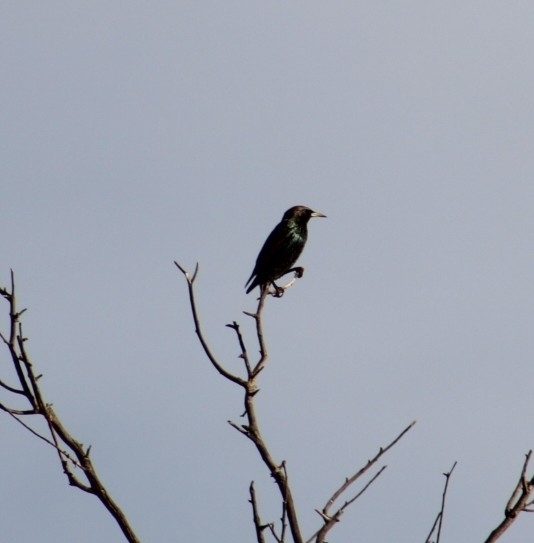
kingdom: Animalia
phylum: Chordata
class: Aves
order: Passeriformes
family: Sturnidae
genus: Sturnus
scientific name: Sturnus vulgaris
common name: Common starling
